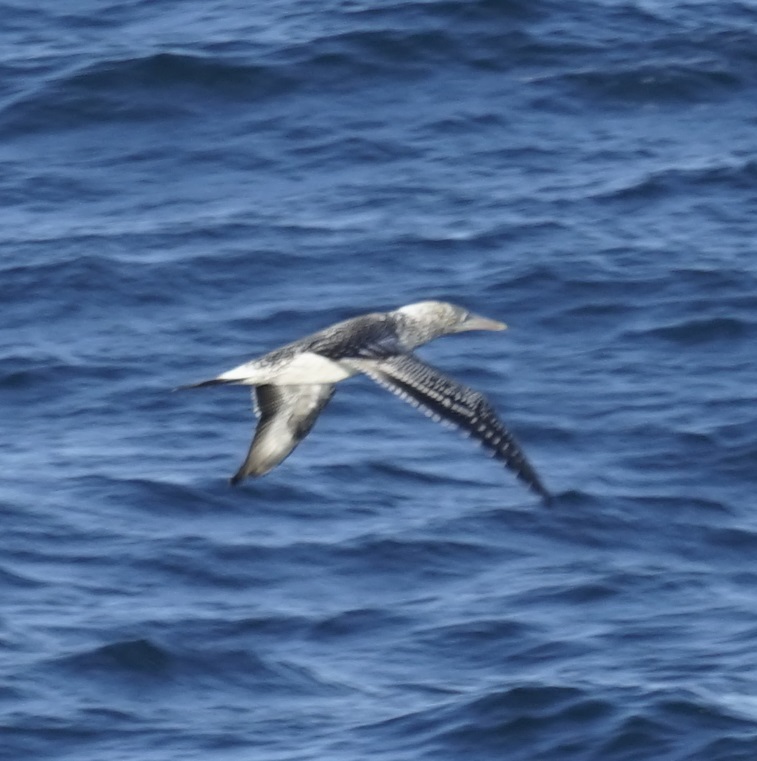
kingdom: Animalia
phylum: Chordata
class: Aves
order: Suliformes
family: Sulidae
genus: Morus
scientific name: Morus serrator
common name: Australasian gannet
